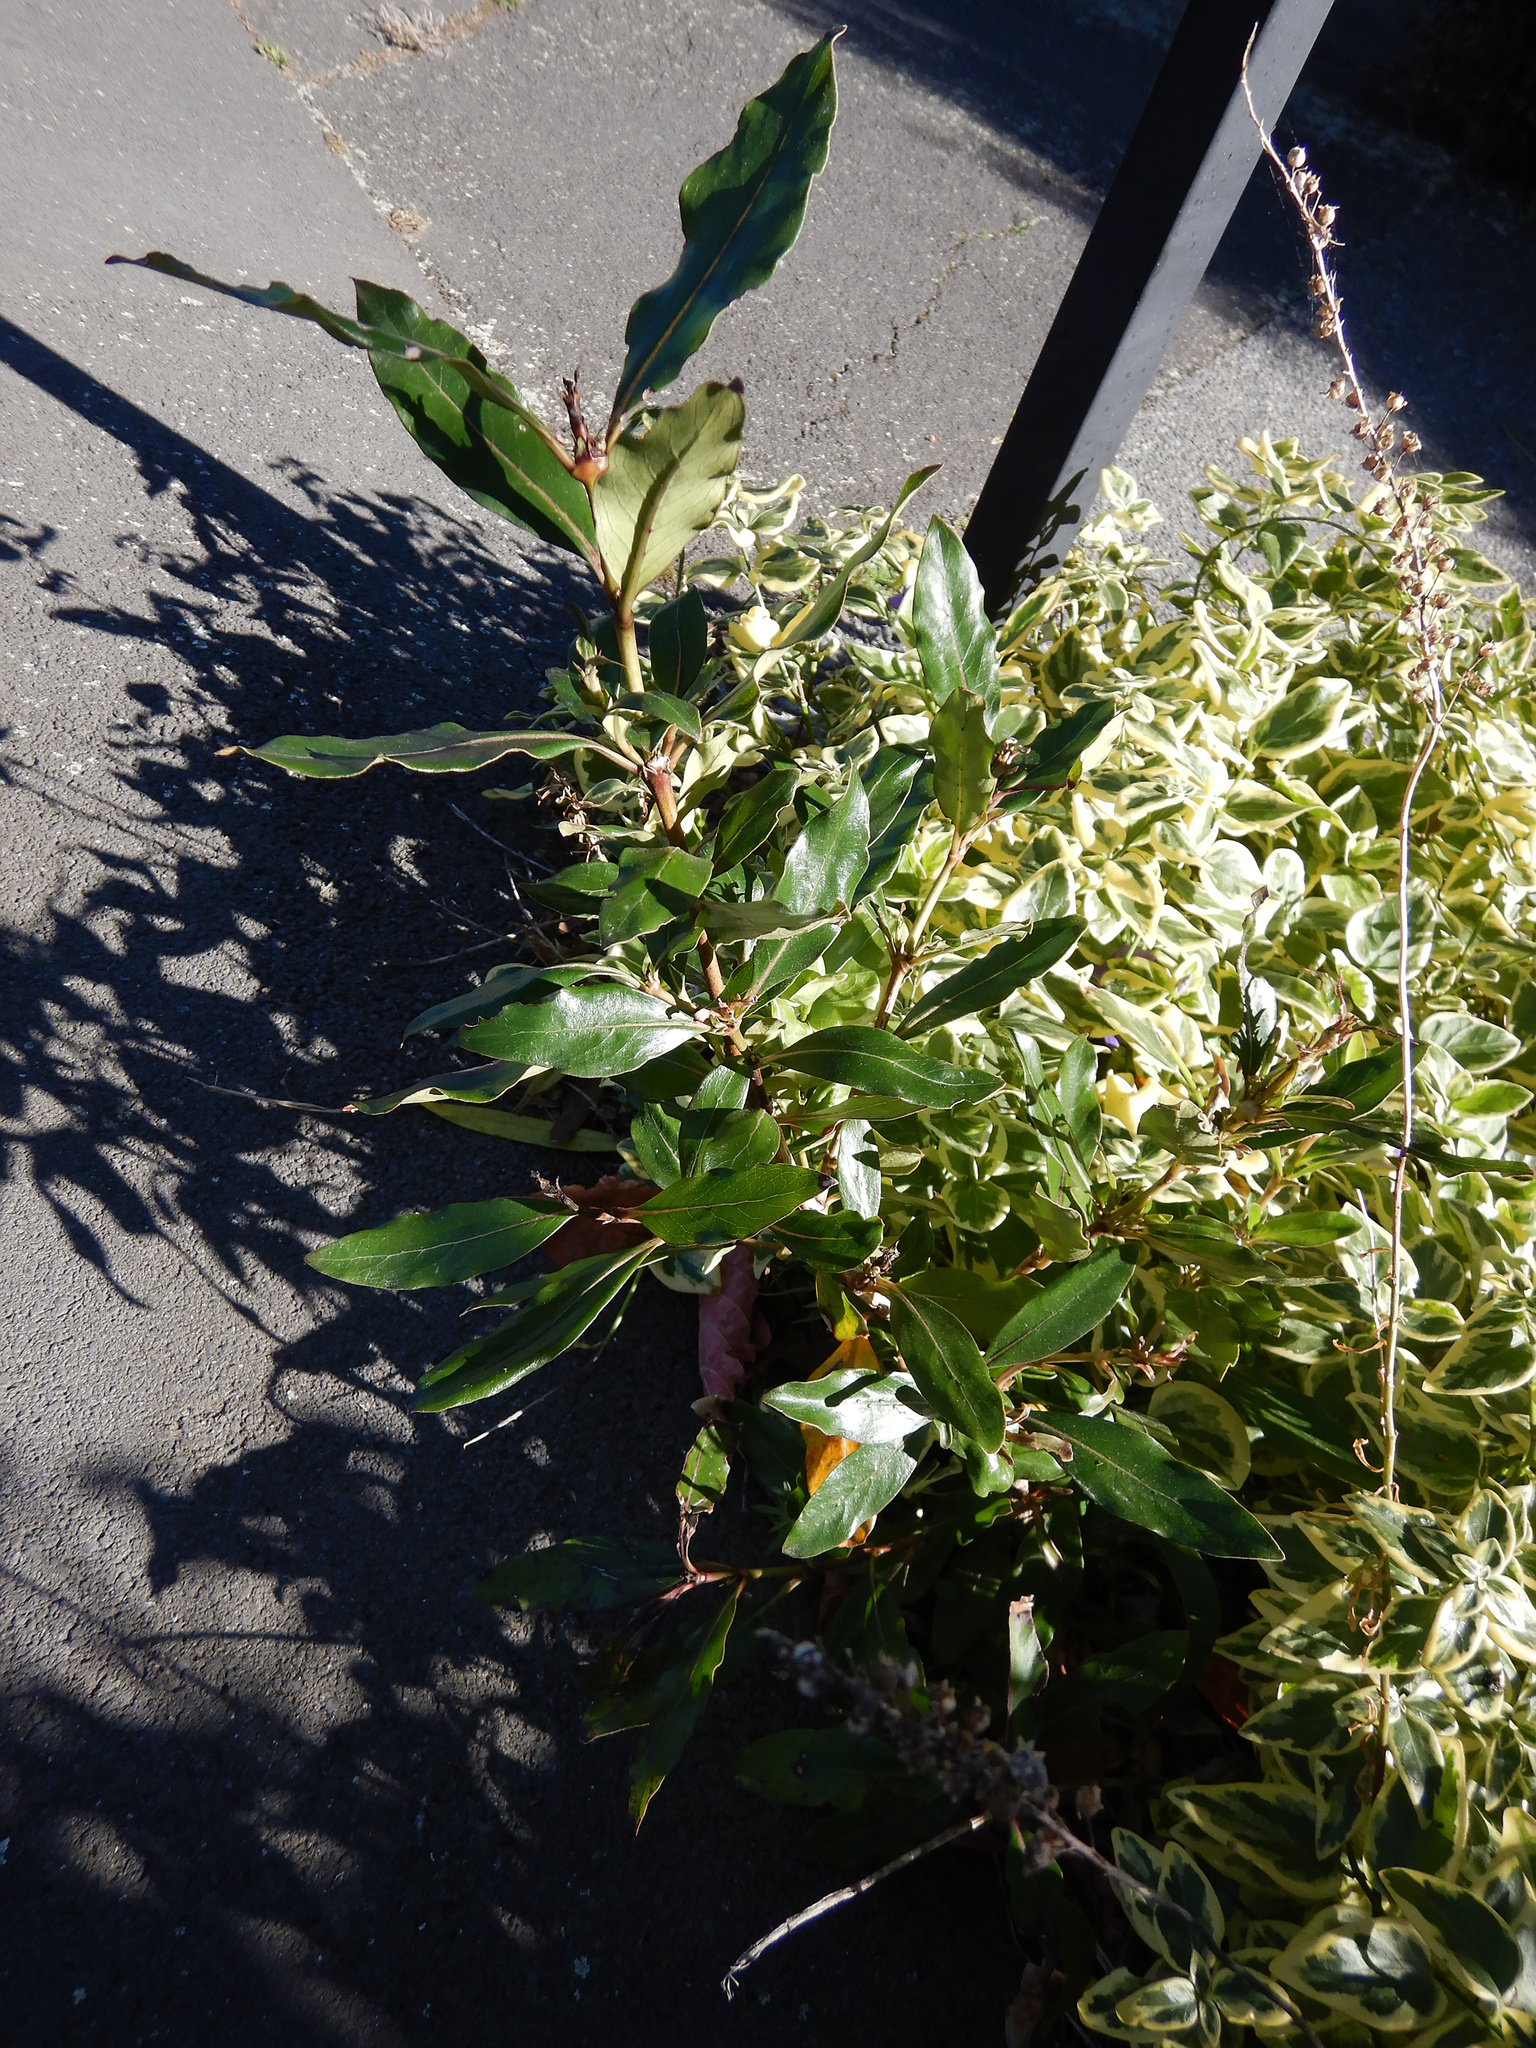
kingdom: Plantae
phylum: Tracheophyta
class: Magnoliopsida
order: Gentianales
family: Rubiaceae
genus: Coprosma
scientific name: Coprosma robusta
